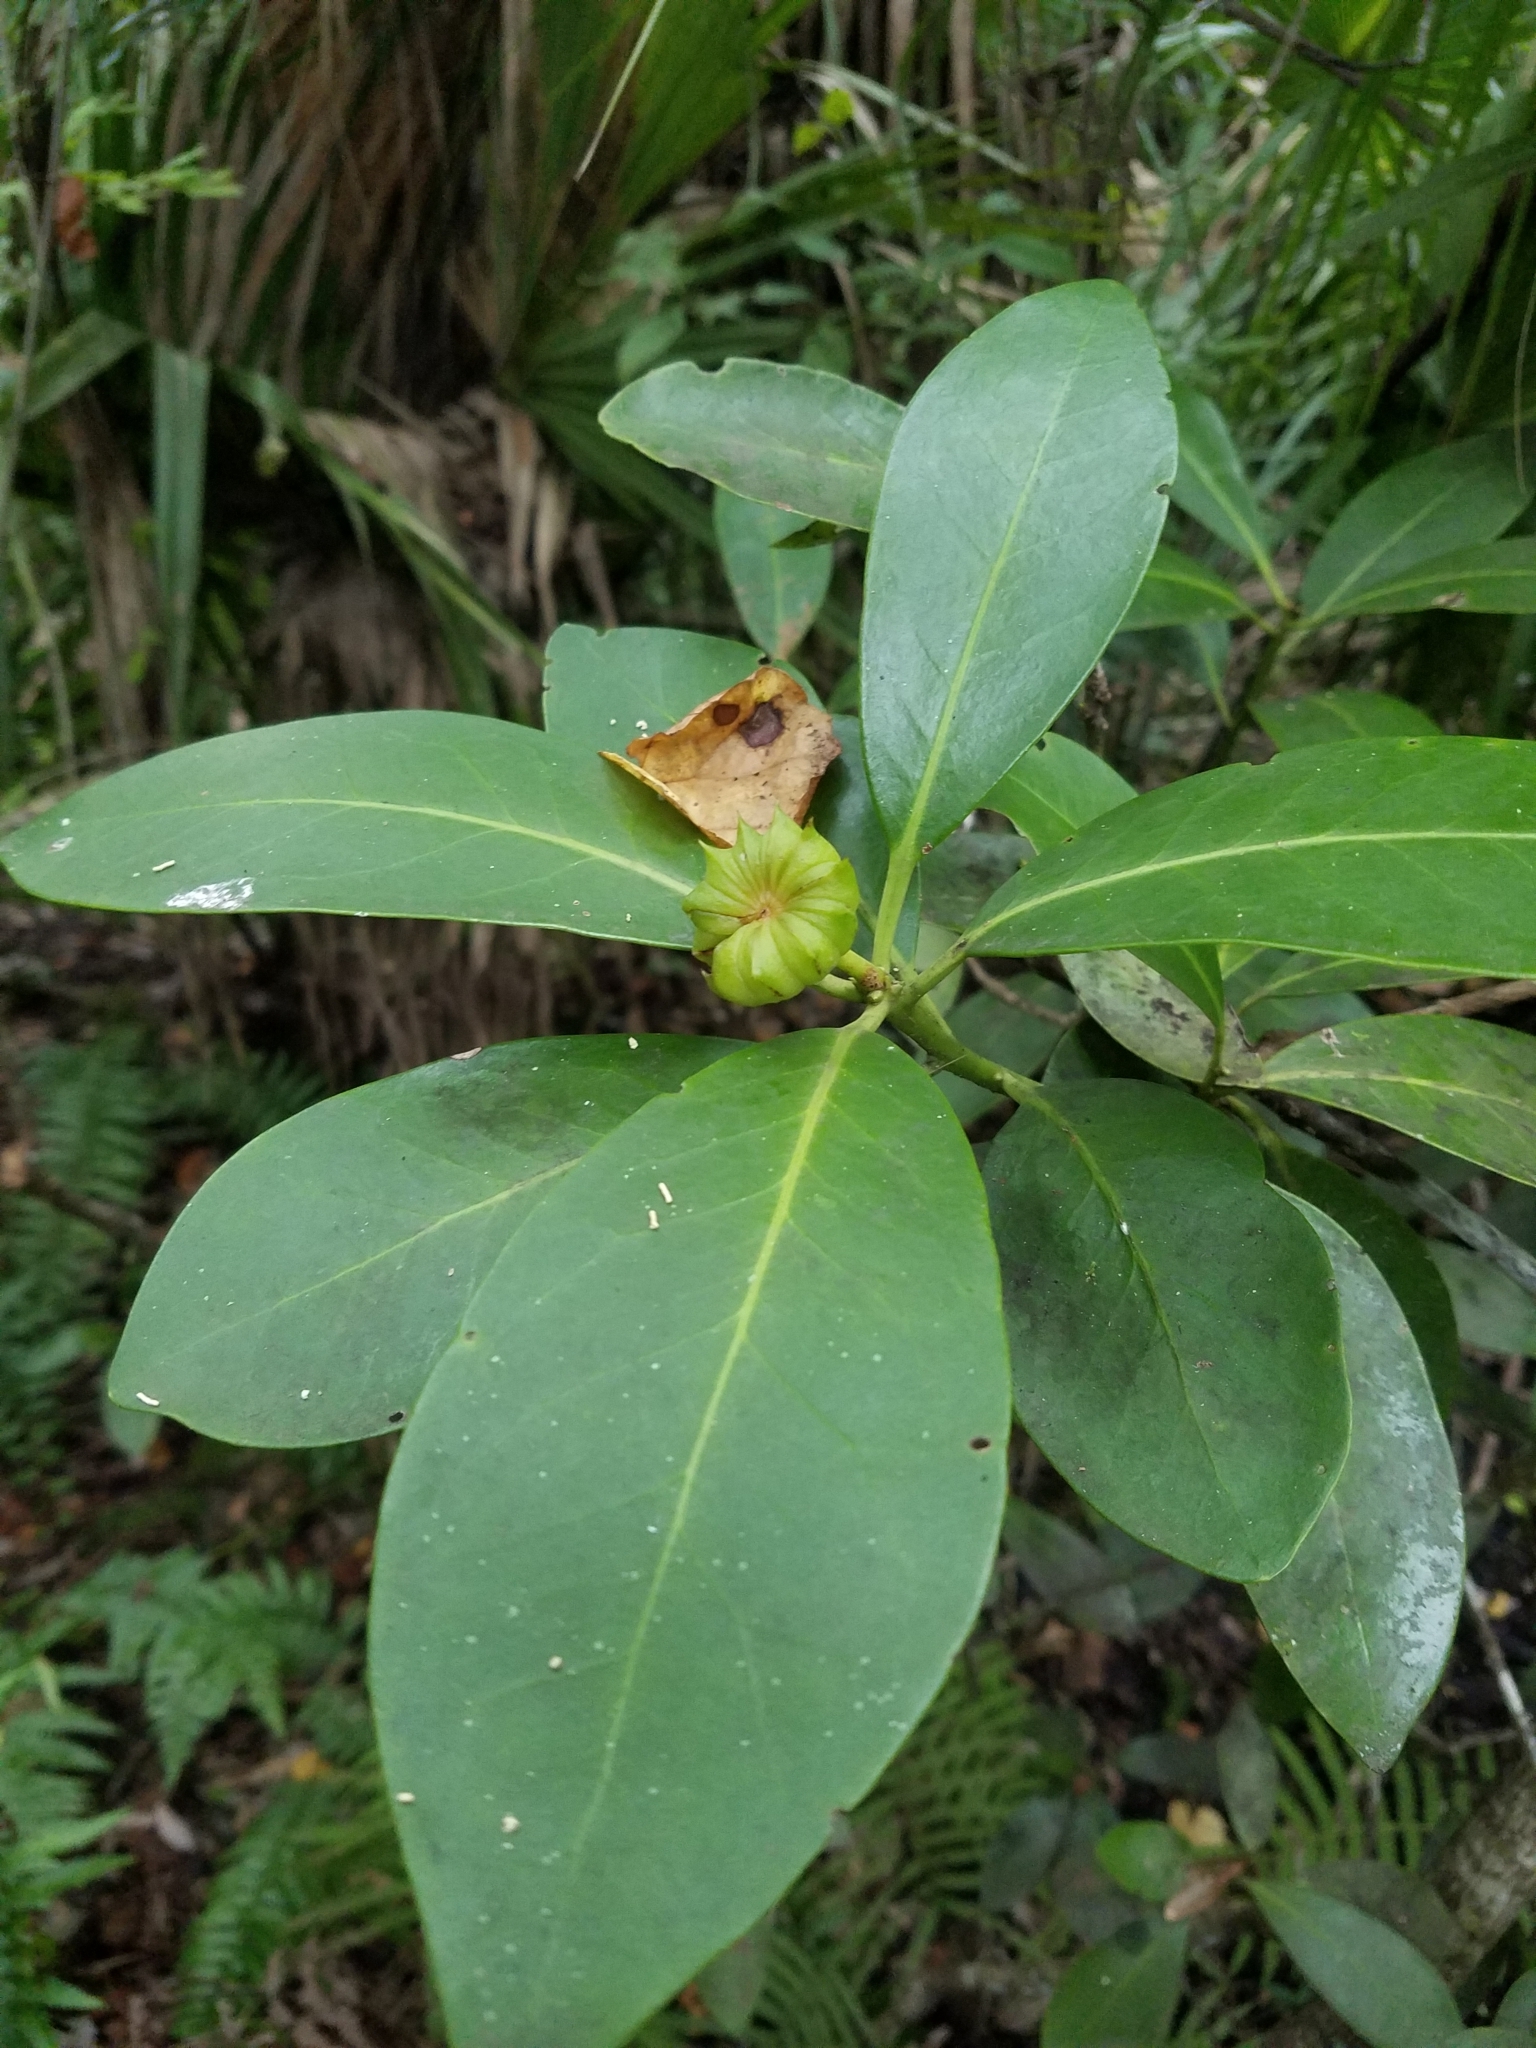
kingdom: Plantae
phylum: Tracheophyta
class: Magnoliopsida
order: Austrobaileyales
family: Schisandraceae
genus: Illicium
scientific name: Illicium parviflorum
